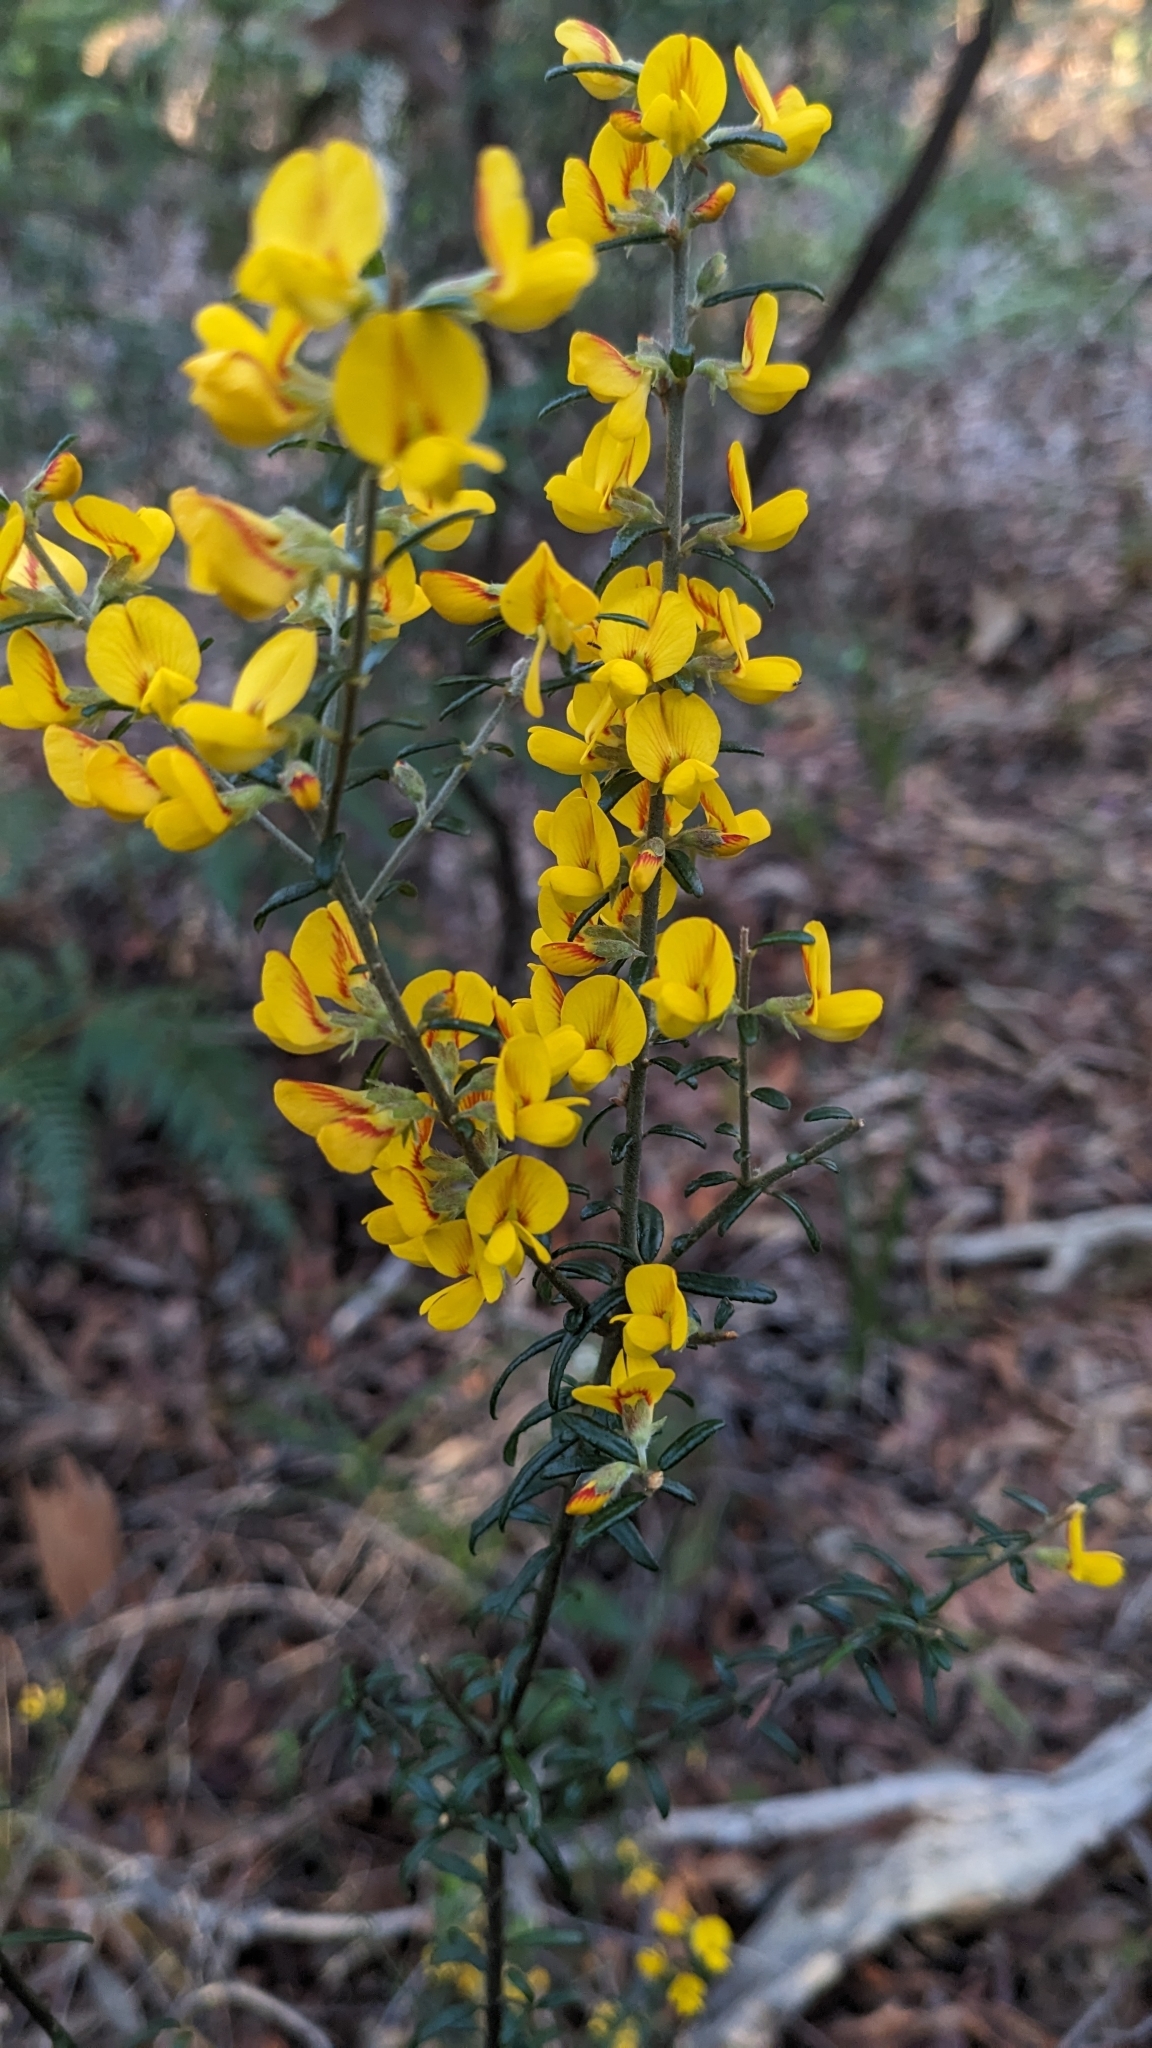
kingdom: Plantae
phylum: Tracheophyta
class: Magnoliopsida
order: Fabales
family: Fabaceae
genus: Aotus
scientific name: Aotus ericoides
